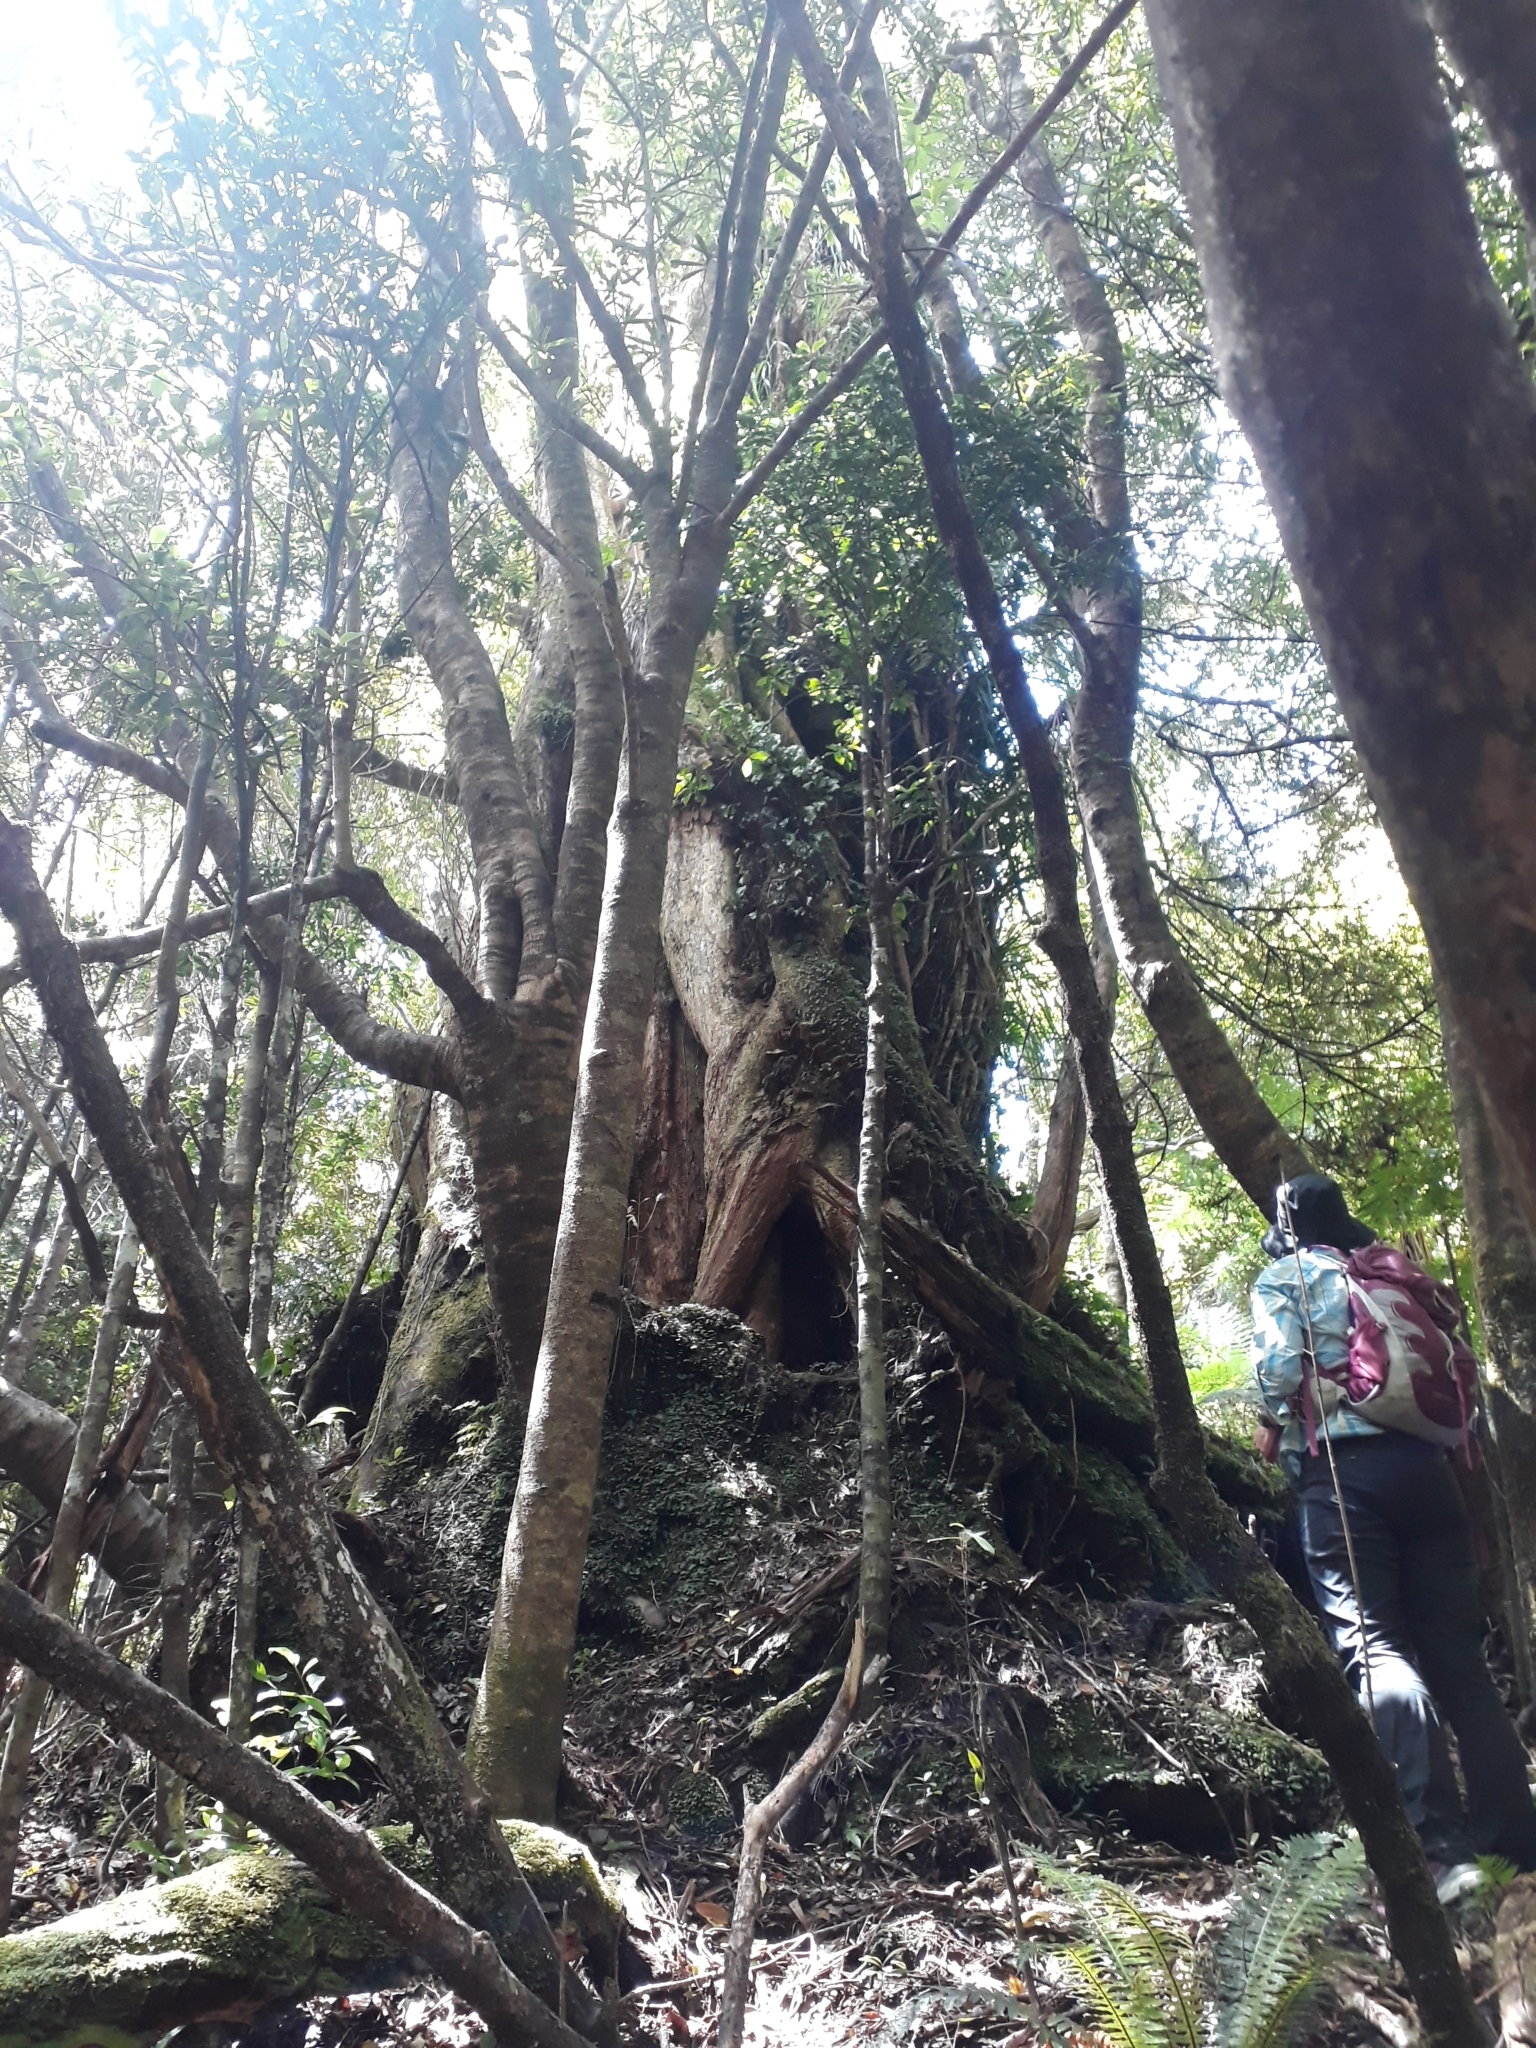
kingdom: Plantae
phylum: Tracheophyta
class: Magnoliopsida
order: Myrtales
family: Myrtaceae
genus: Metrosideros
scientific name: Metrosideros robusta
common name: Northern rata
